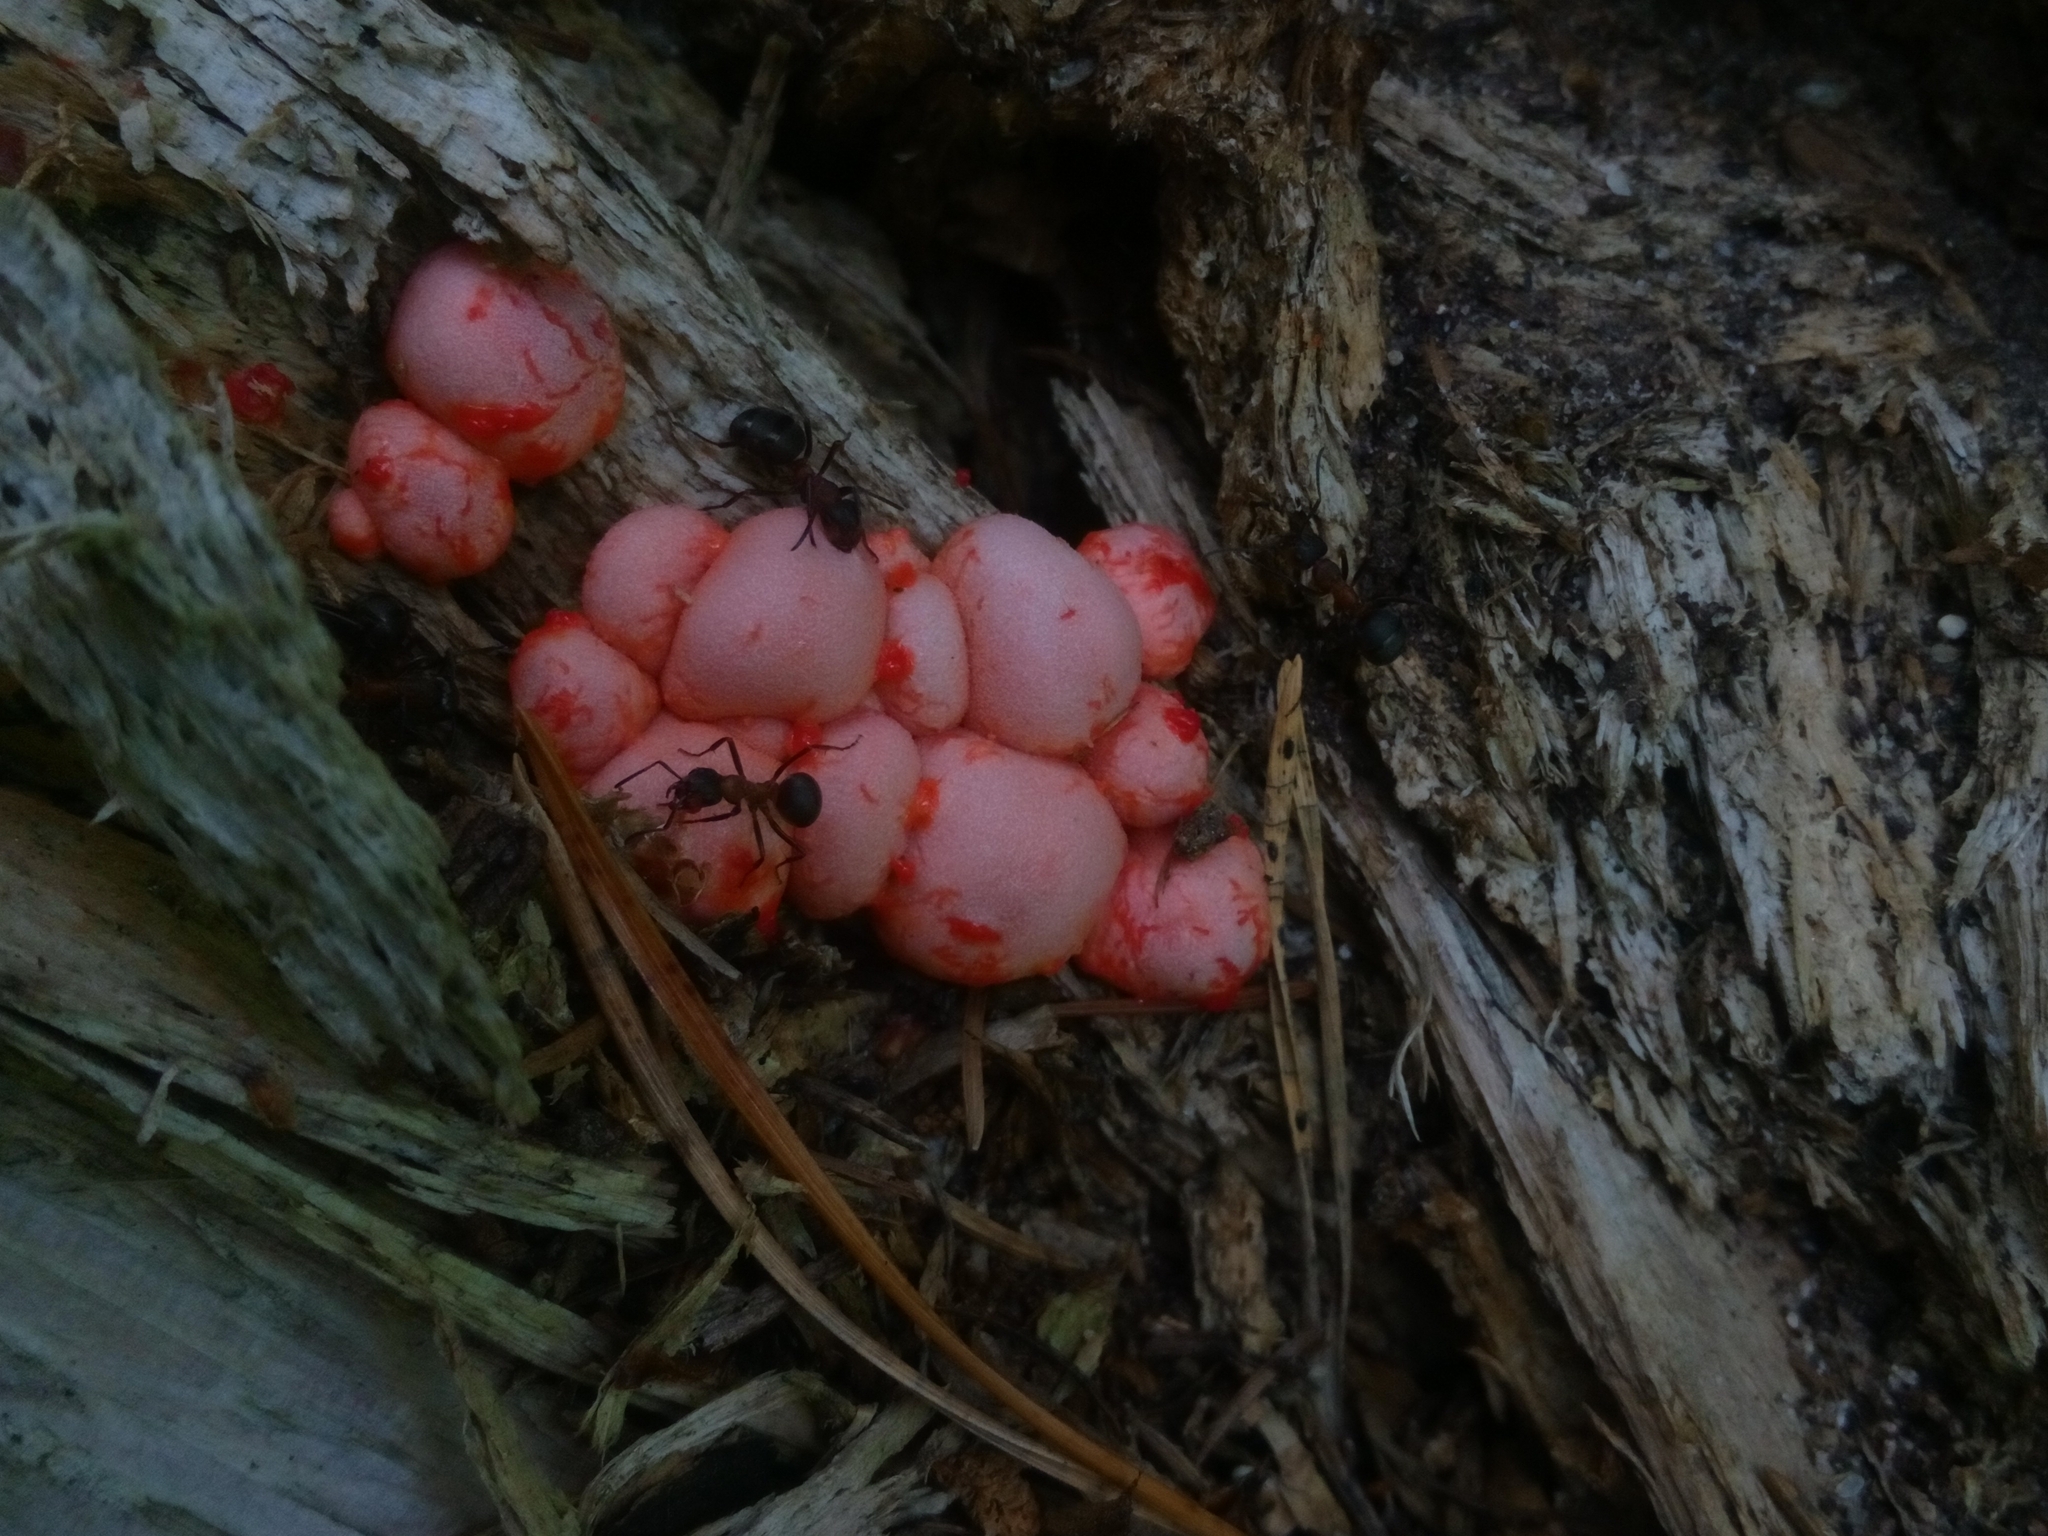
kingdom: Protozoa
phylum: Mycetozoa
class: Myxomycetes
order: Cribrariales
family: Tubiferaceae
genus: Lycogala
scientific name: Lycogala epidendrum
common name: Wolf's milk
